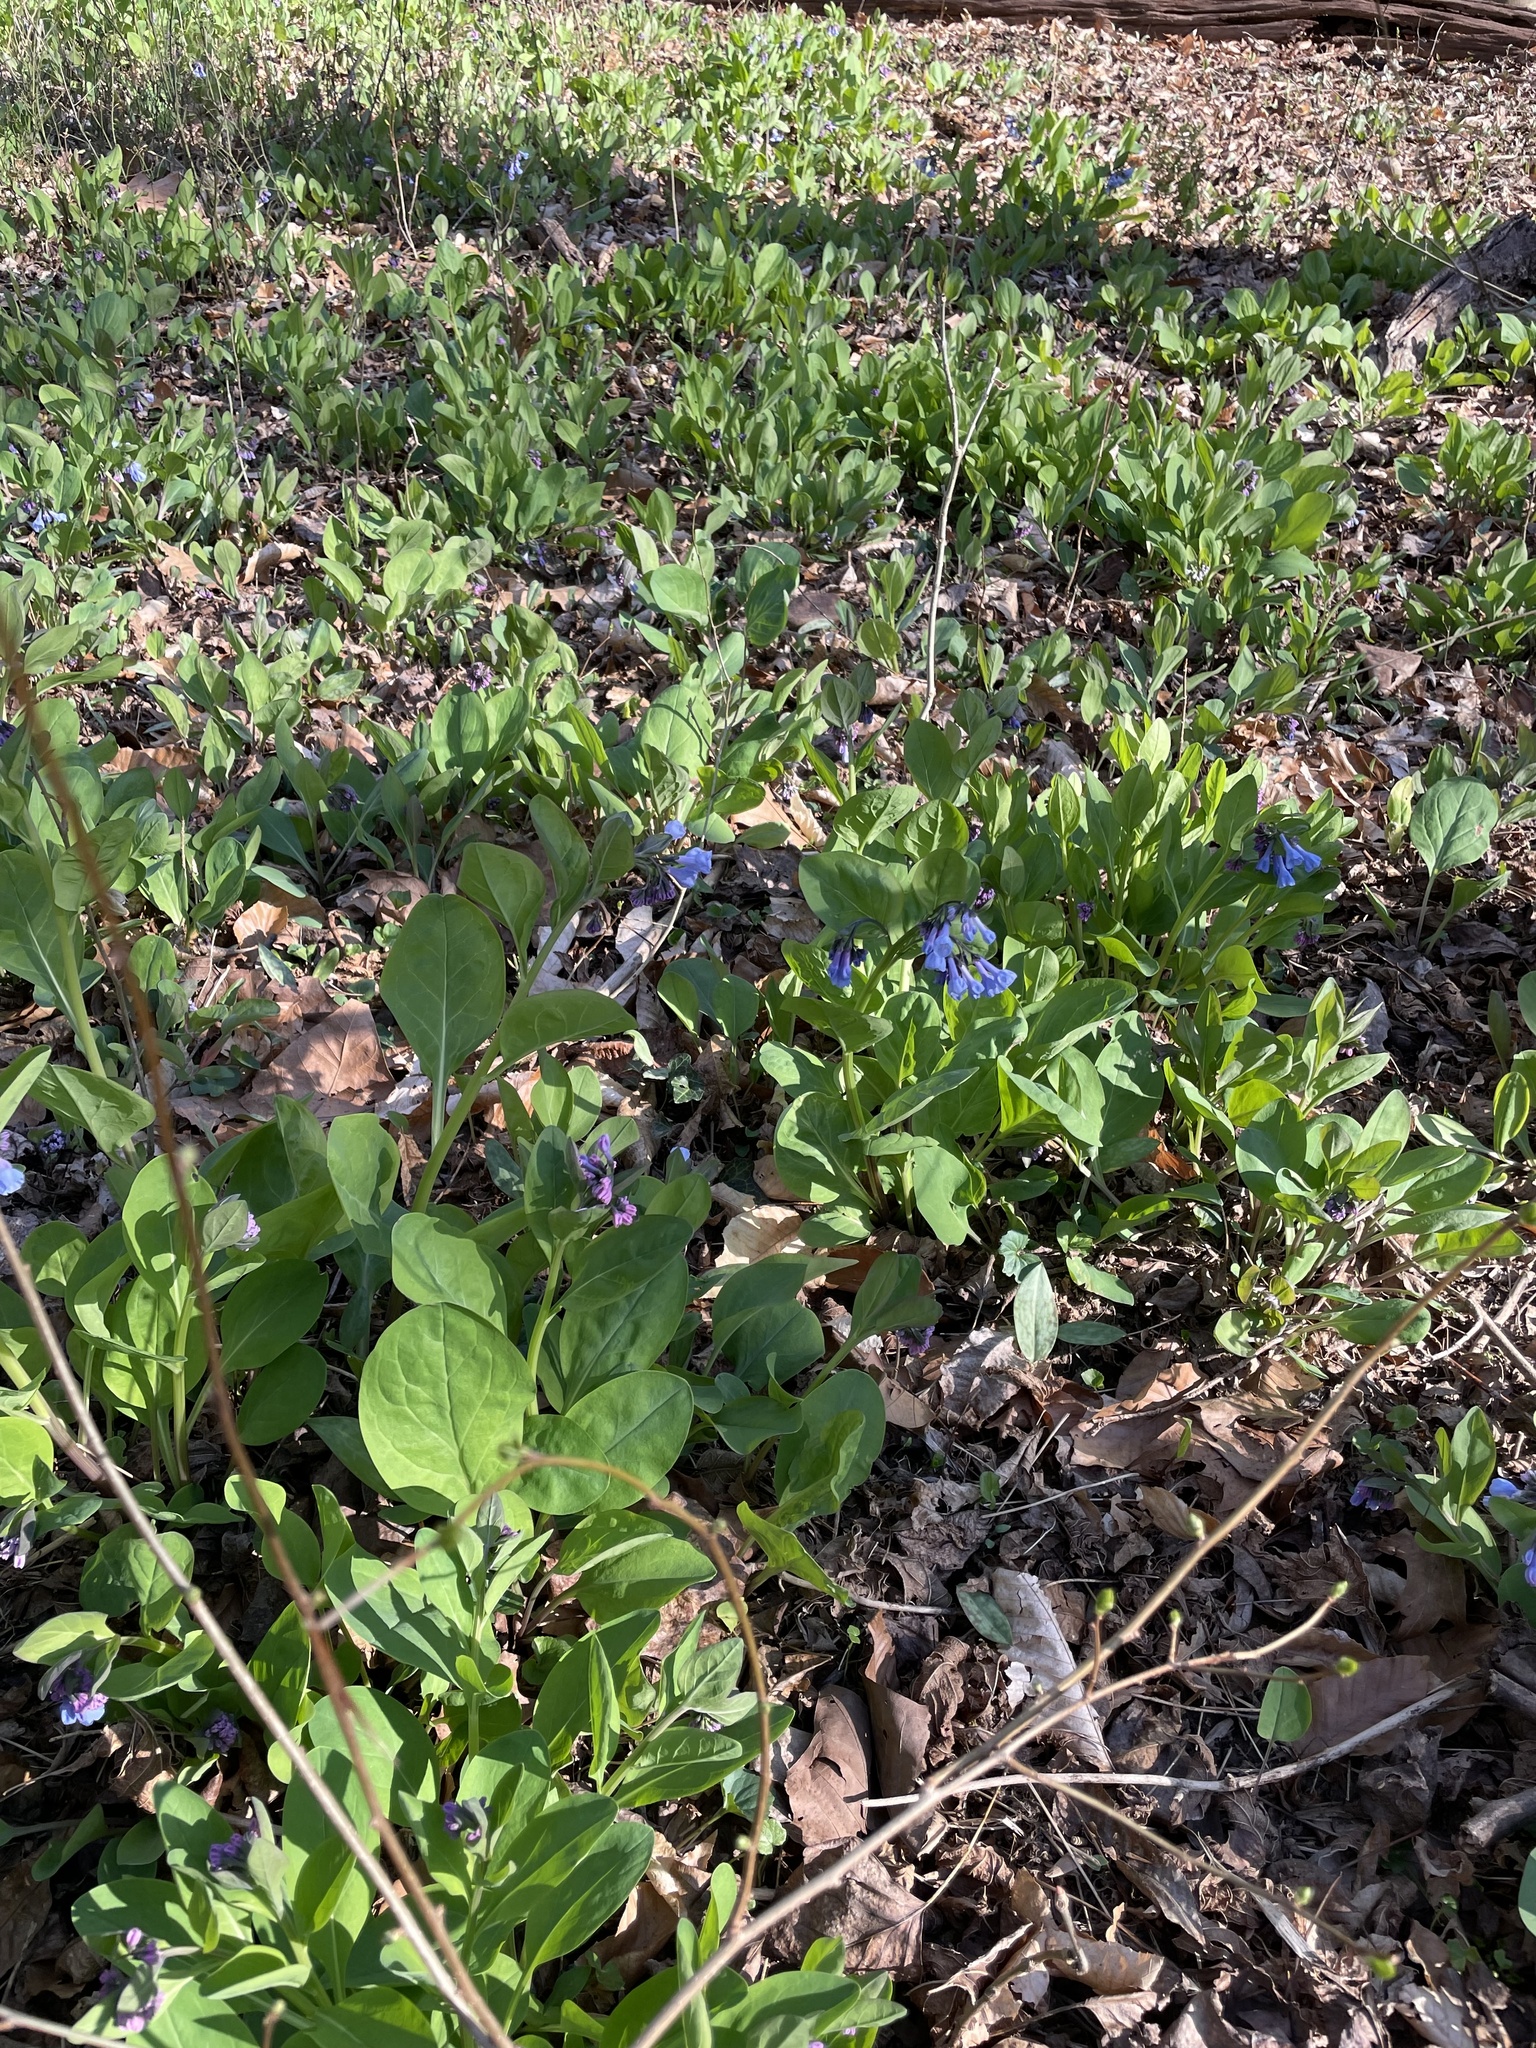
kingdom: Plantae
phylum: Tracheophyta
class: Magnoliopsida
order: Boraginales
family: Boraginaceae
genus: Mertensia
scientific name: Mertensia virginica
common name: Virginia bluebells
